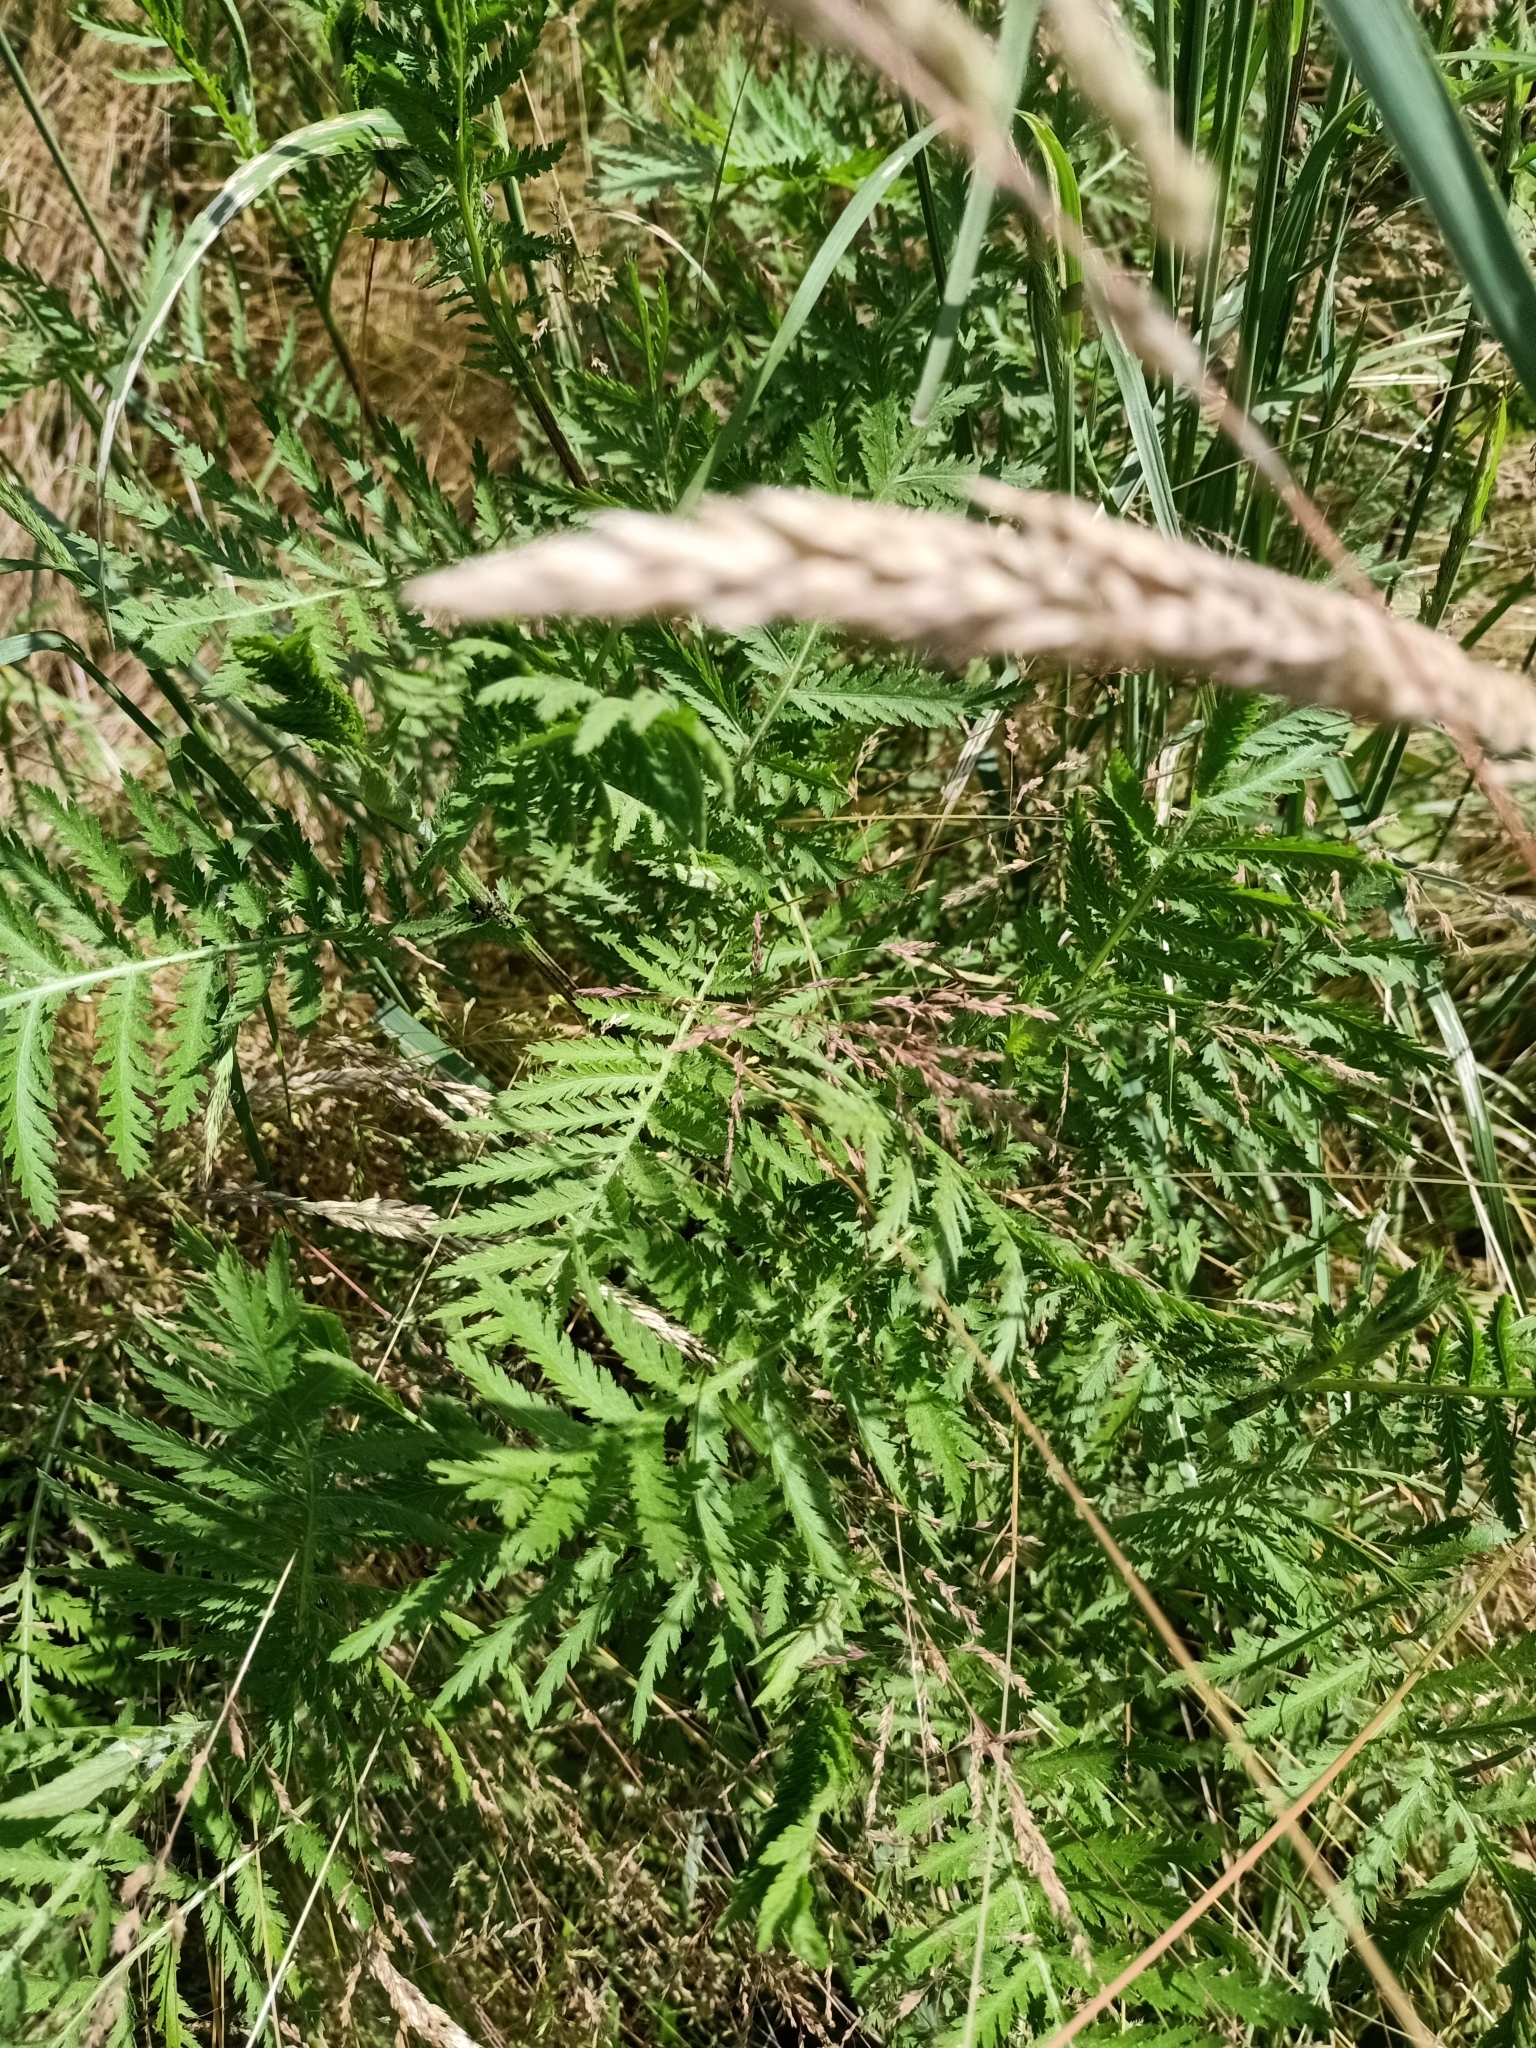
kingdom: Plantae
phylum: Tracheophyta
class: Magnoliopsida
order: Asterales
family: Asteraceae
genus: Tanacetum
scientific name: Tanacetum vulgare
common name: Common tansy
